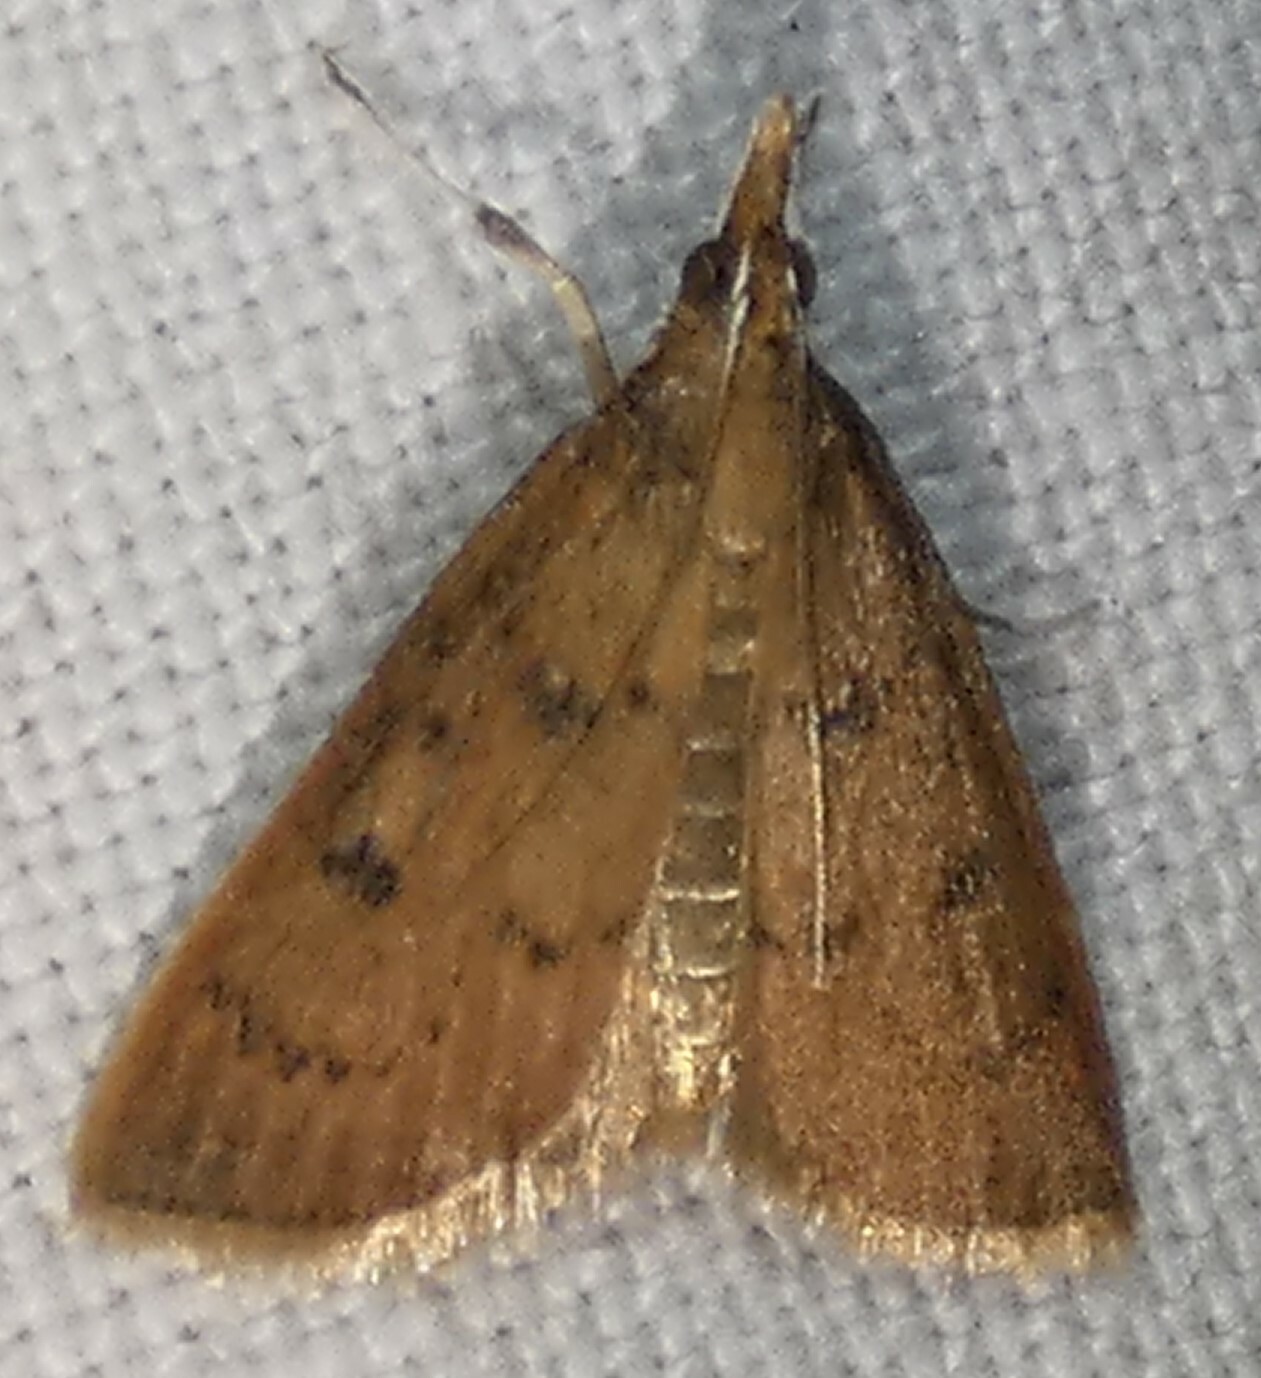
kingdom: Animalia
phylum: Arthropoda
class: Insecta
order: Lepidoptera
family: Crambidae
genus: Oenobotys
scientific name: Oenobotys vinotinctalis
